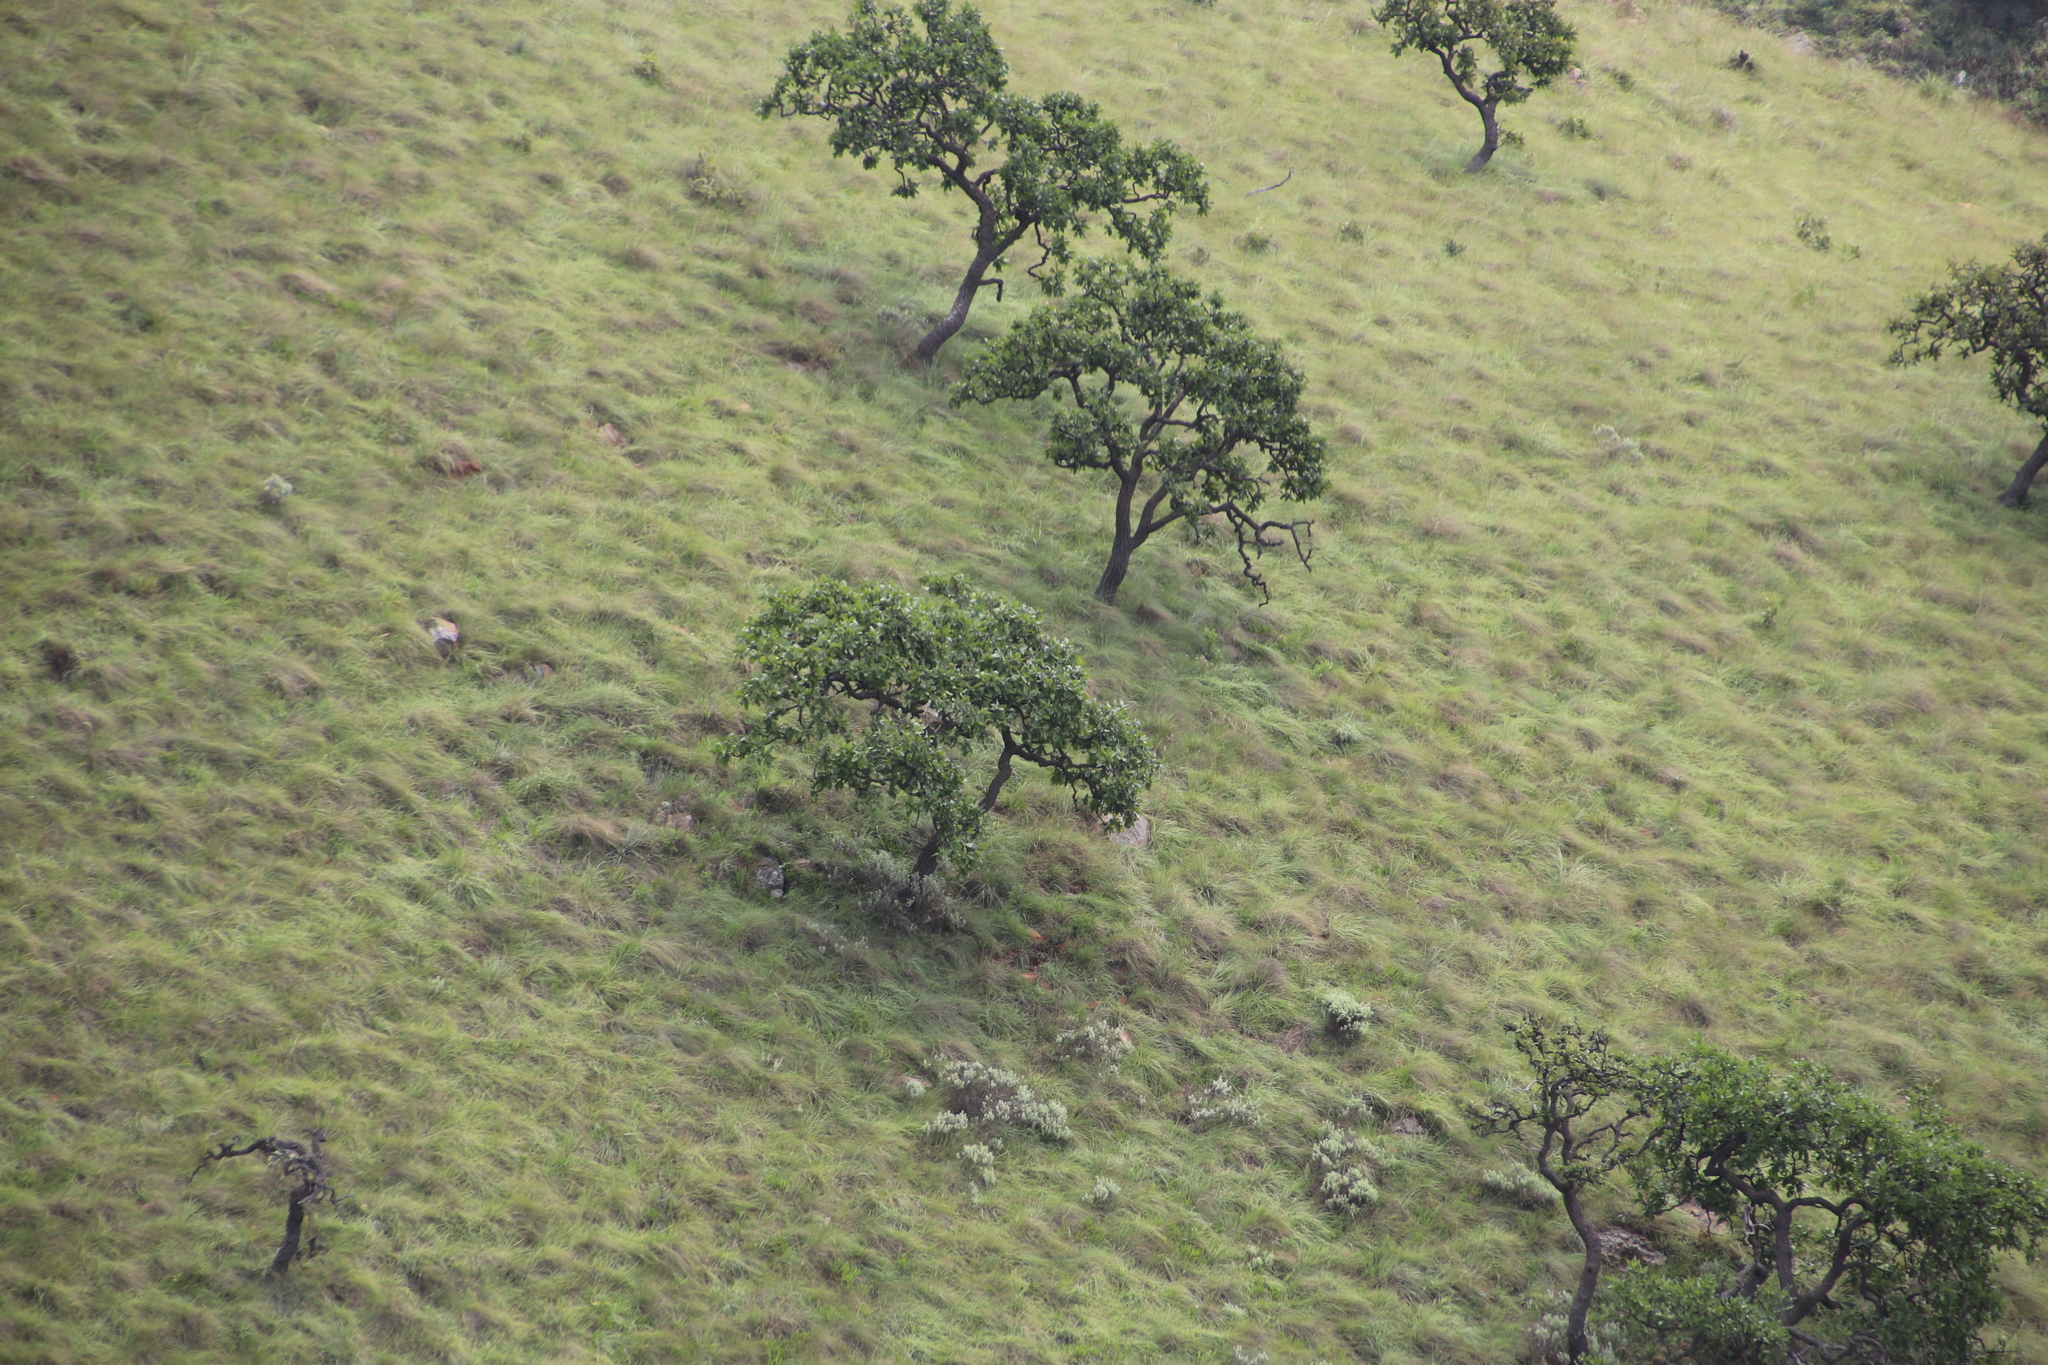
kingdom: Plantae
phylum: Tracheophyta
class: Magnoliopsida
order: Proteales
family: Proteaceae
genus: Faurea
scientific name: Faurea rochetiana
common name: Broad-leaved beech
